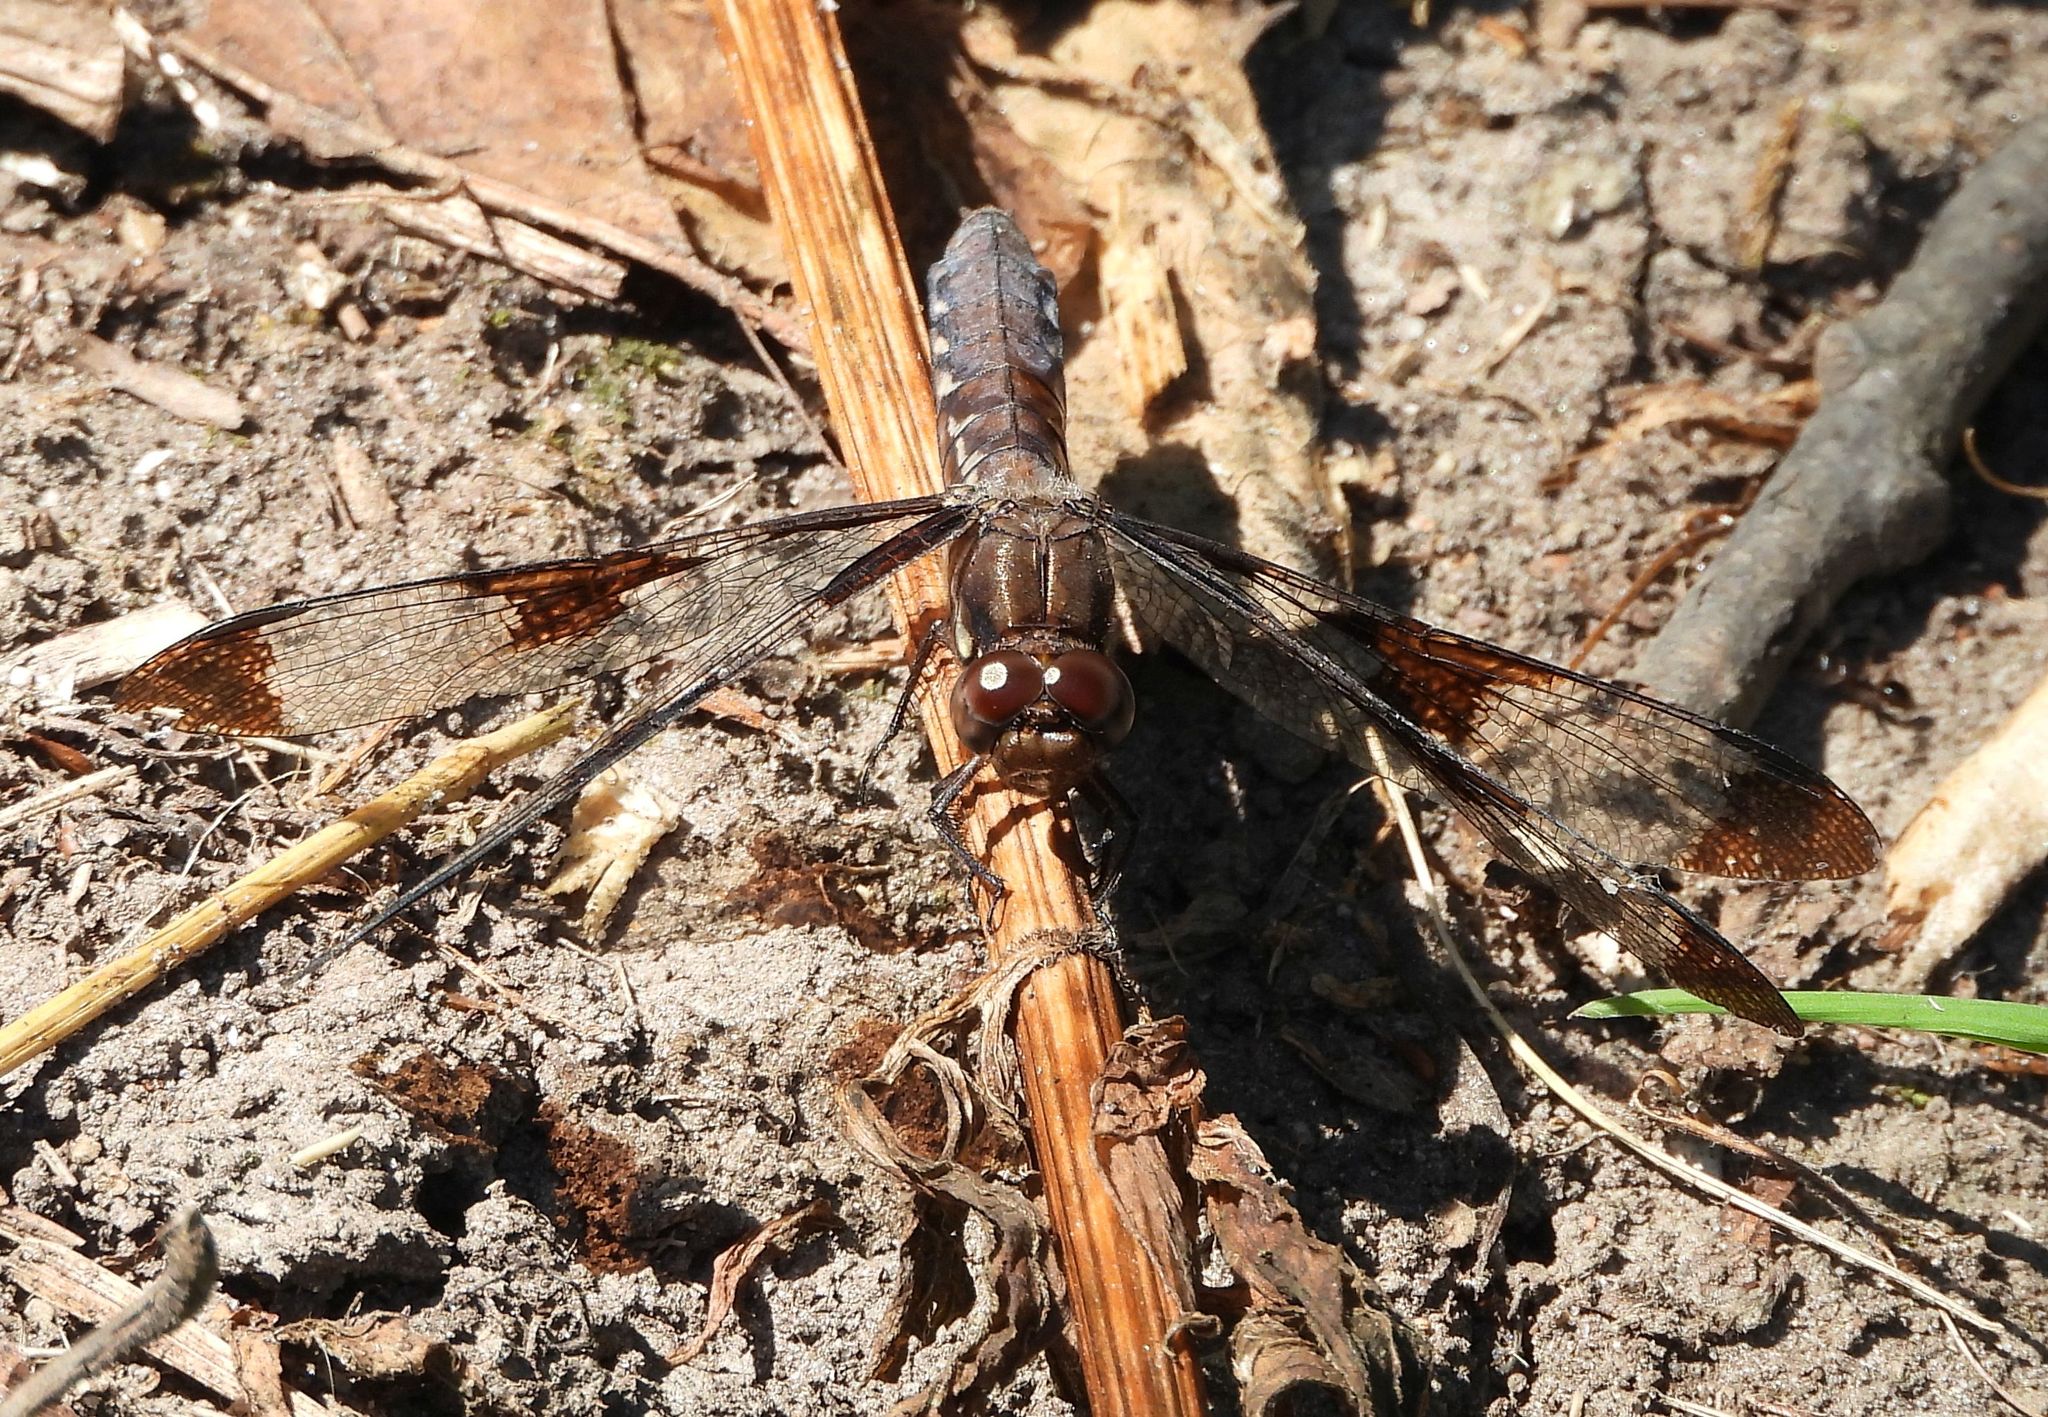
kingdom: Animalia
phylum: Arthropoda
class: Insecta
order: Odonata
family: Libellulidae
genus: Plathemis
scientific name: Plathemis lydia
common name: Common whitetail
